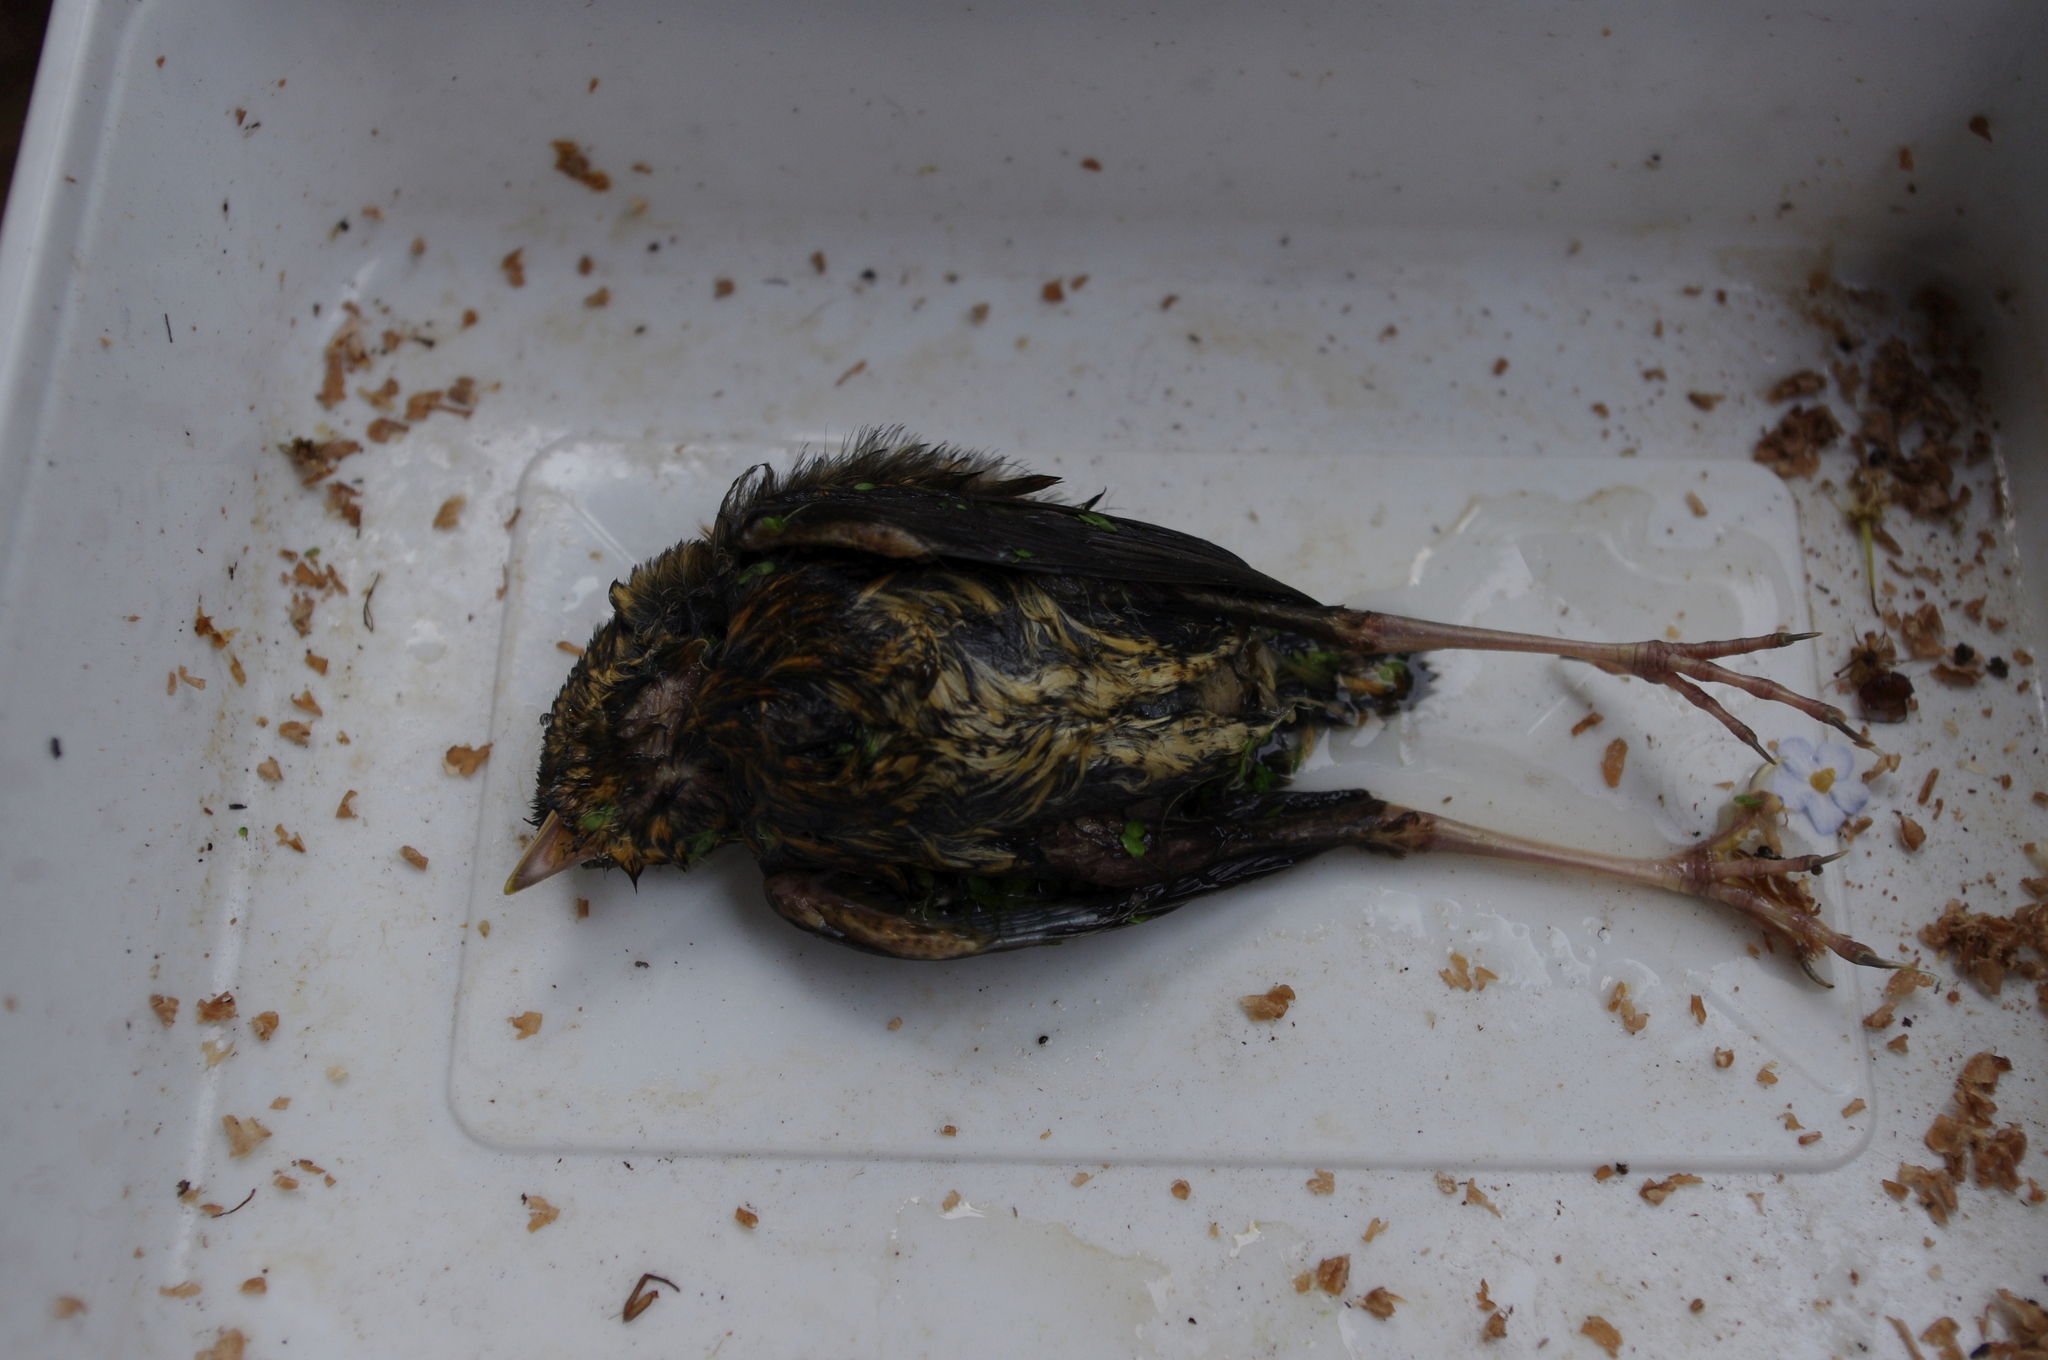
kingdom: Animalia
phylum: Chordata
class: Aves
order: Passeriformes
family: Muscicapidae
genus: Erithacus
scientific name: Erithacus rubecula
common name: European robin
